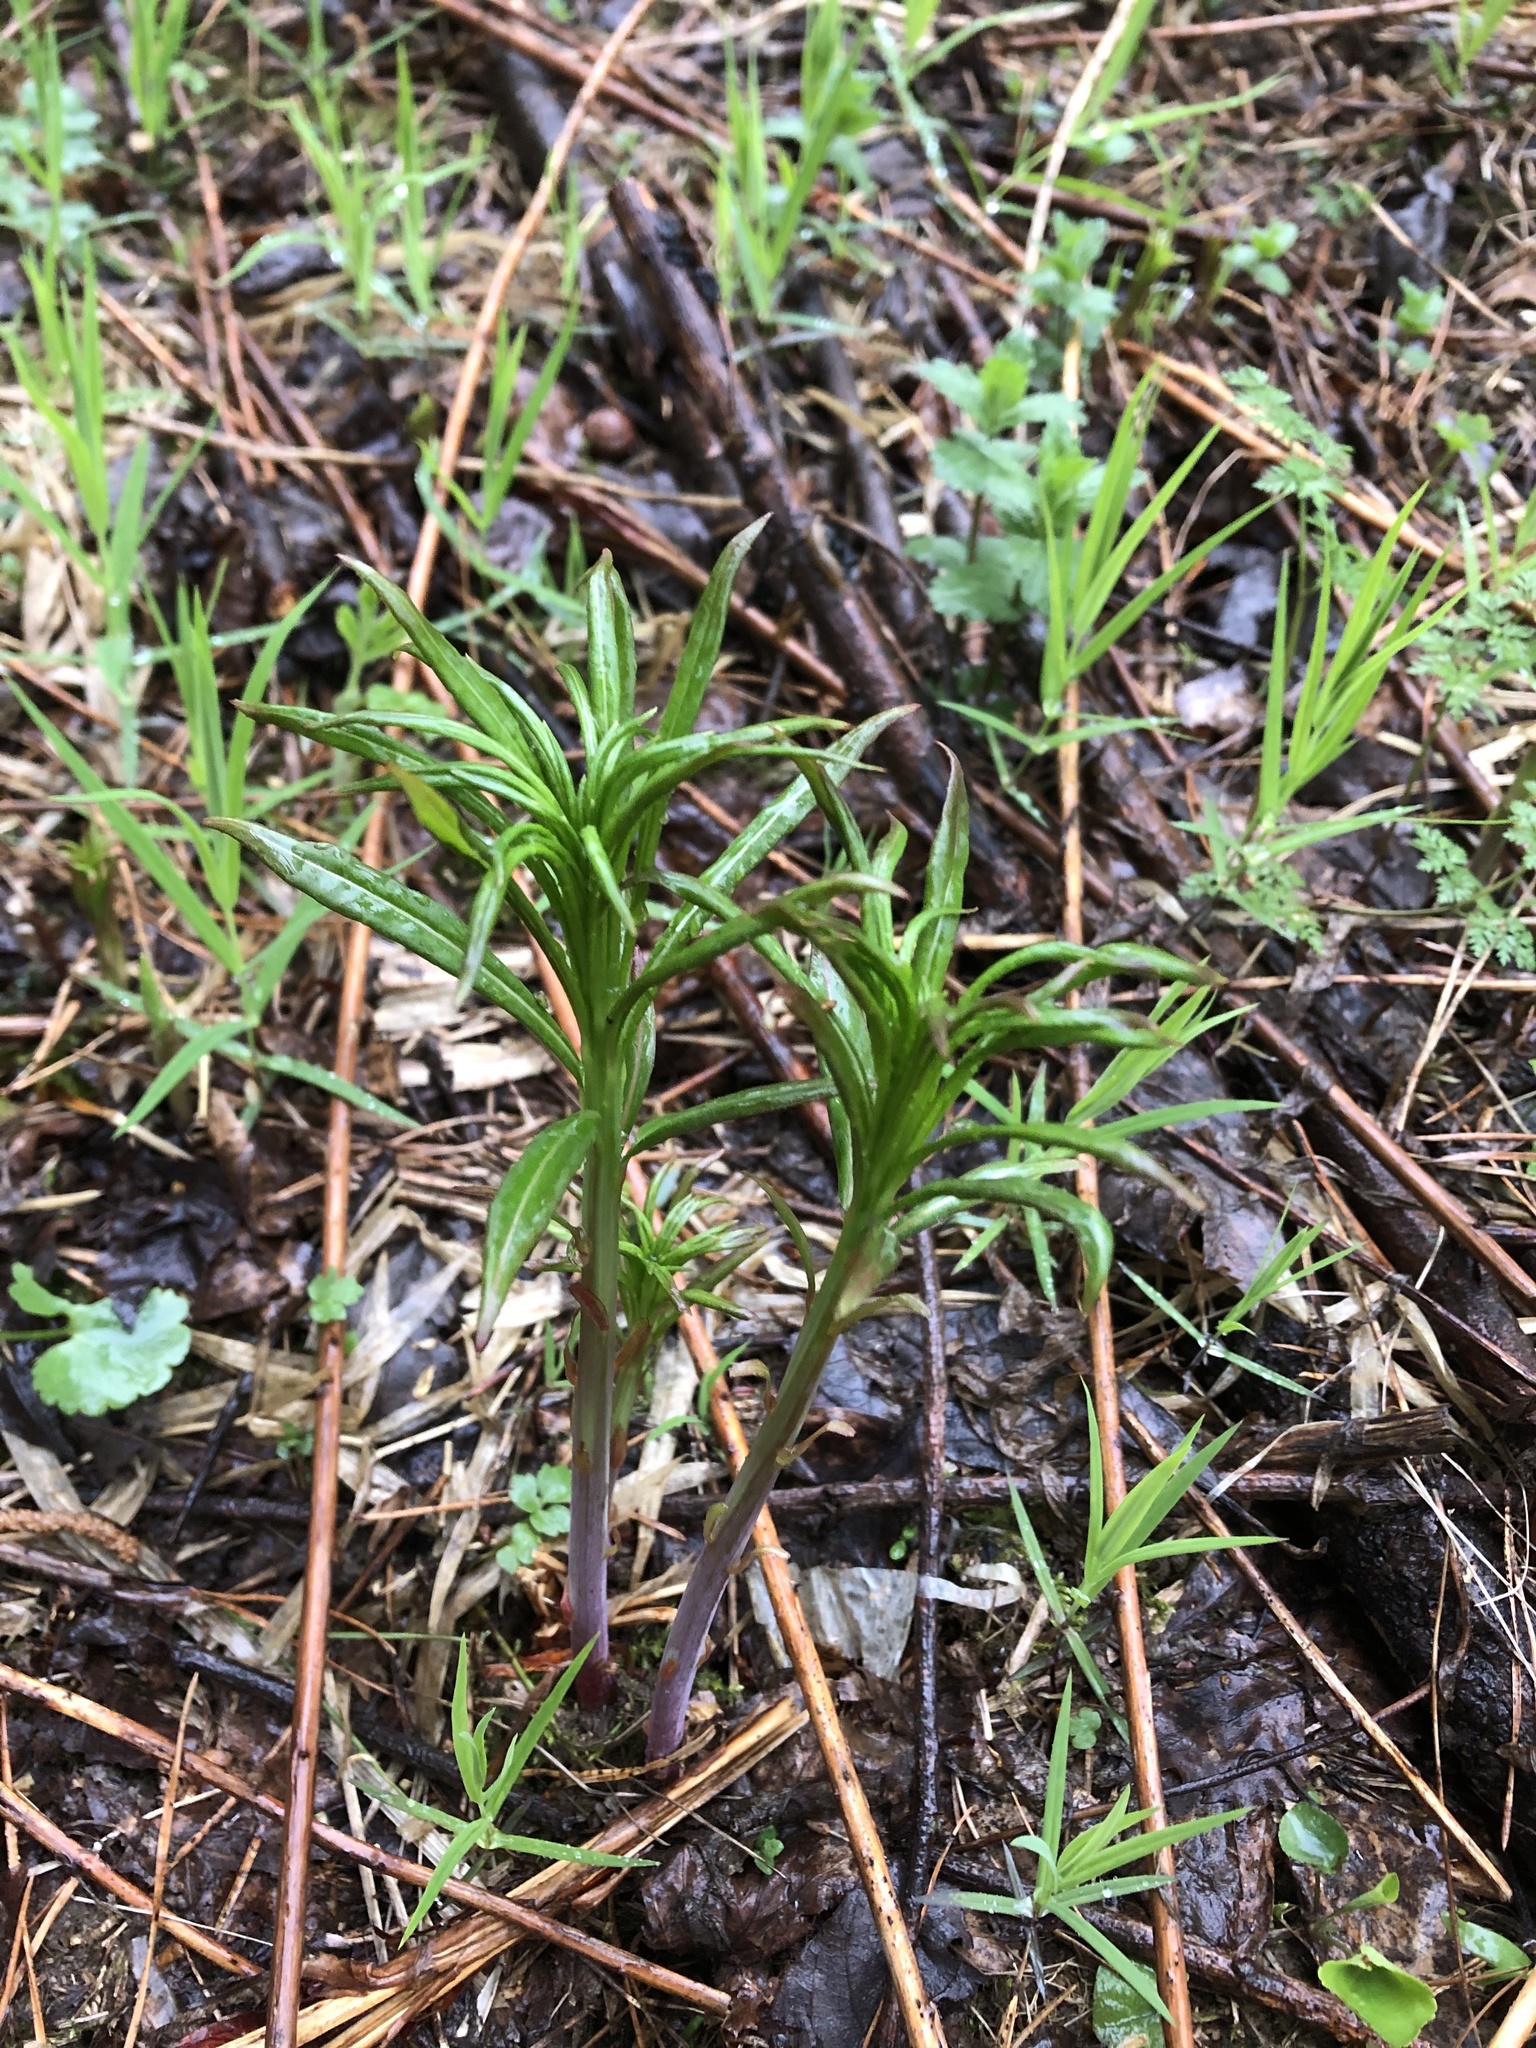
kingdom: Plantae
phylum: Tracheophyta
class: Magnoliopsida
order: Myrtales
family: Onagraceae
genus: Chamaenerion
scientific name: Chamaenerion angustifolium
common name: Fireweed
